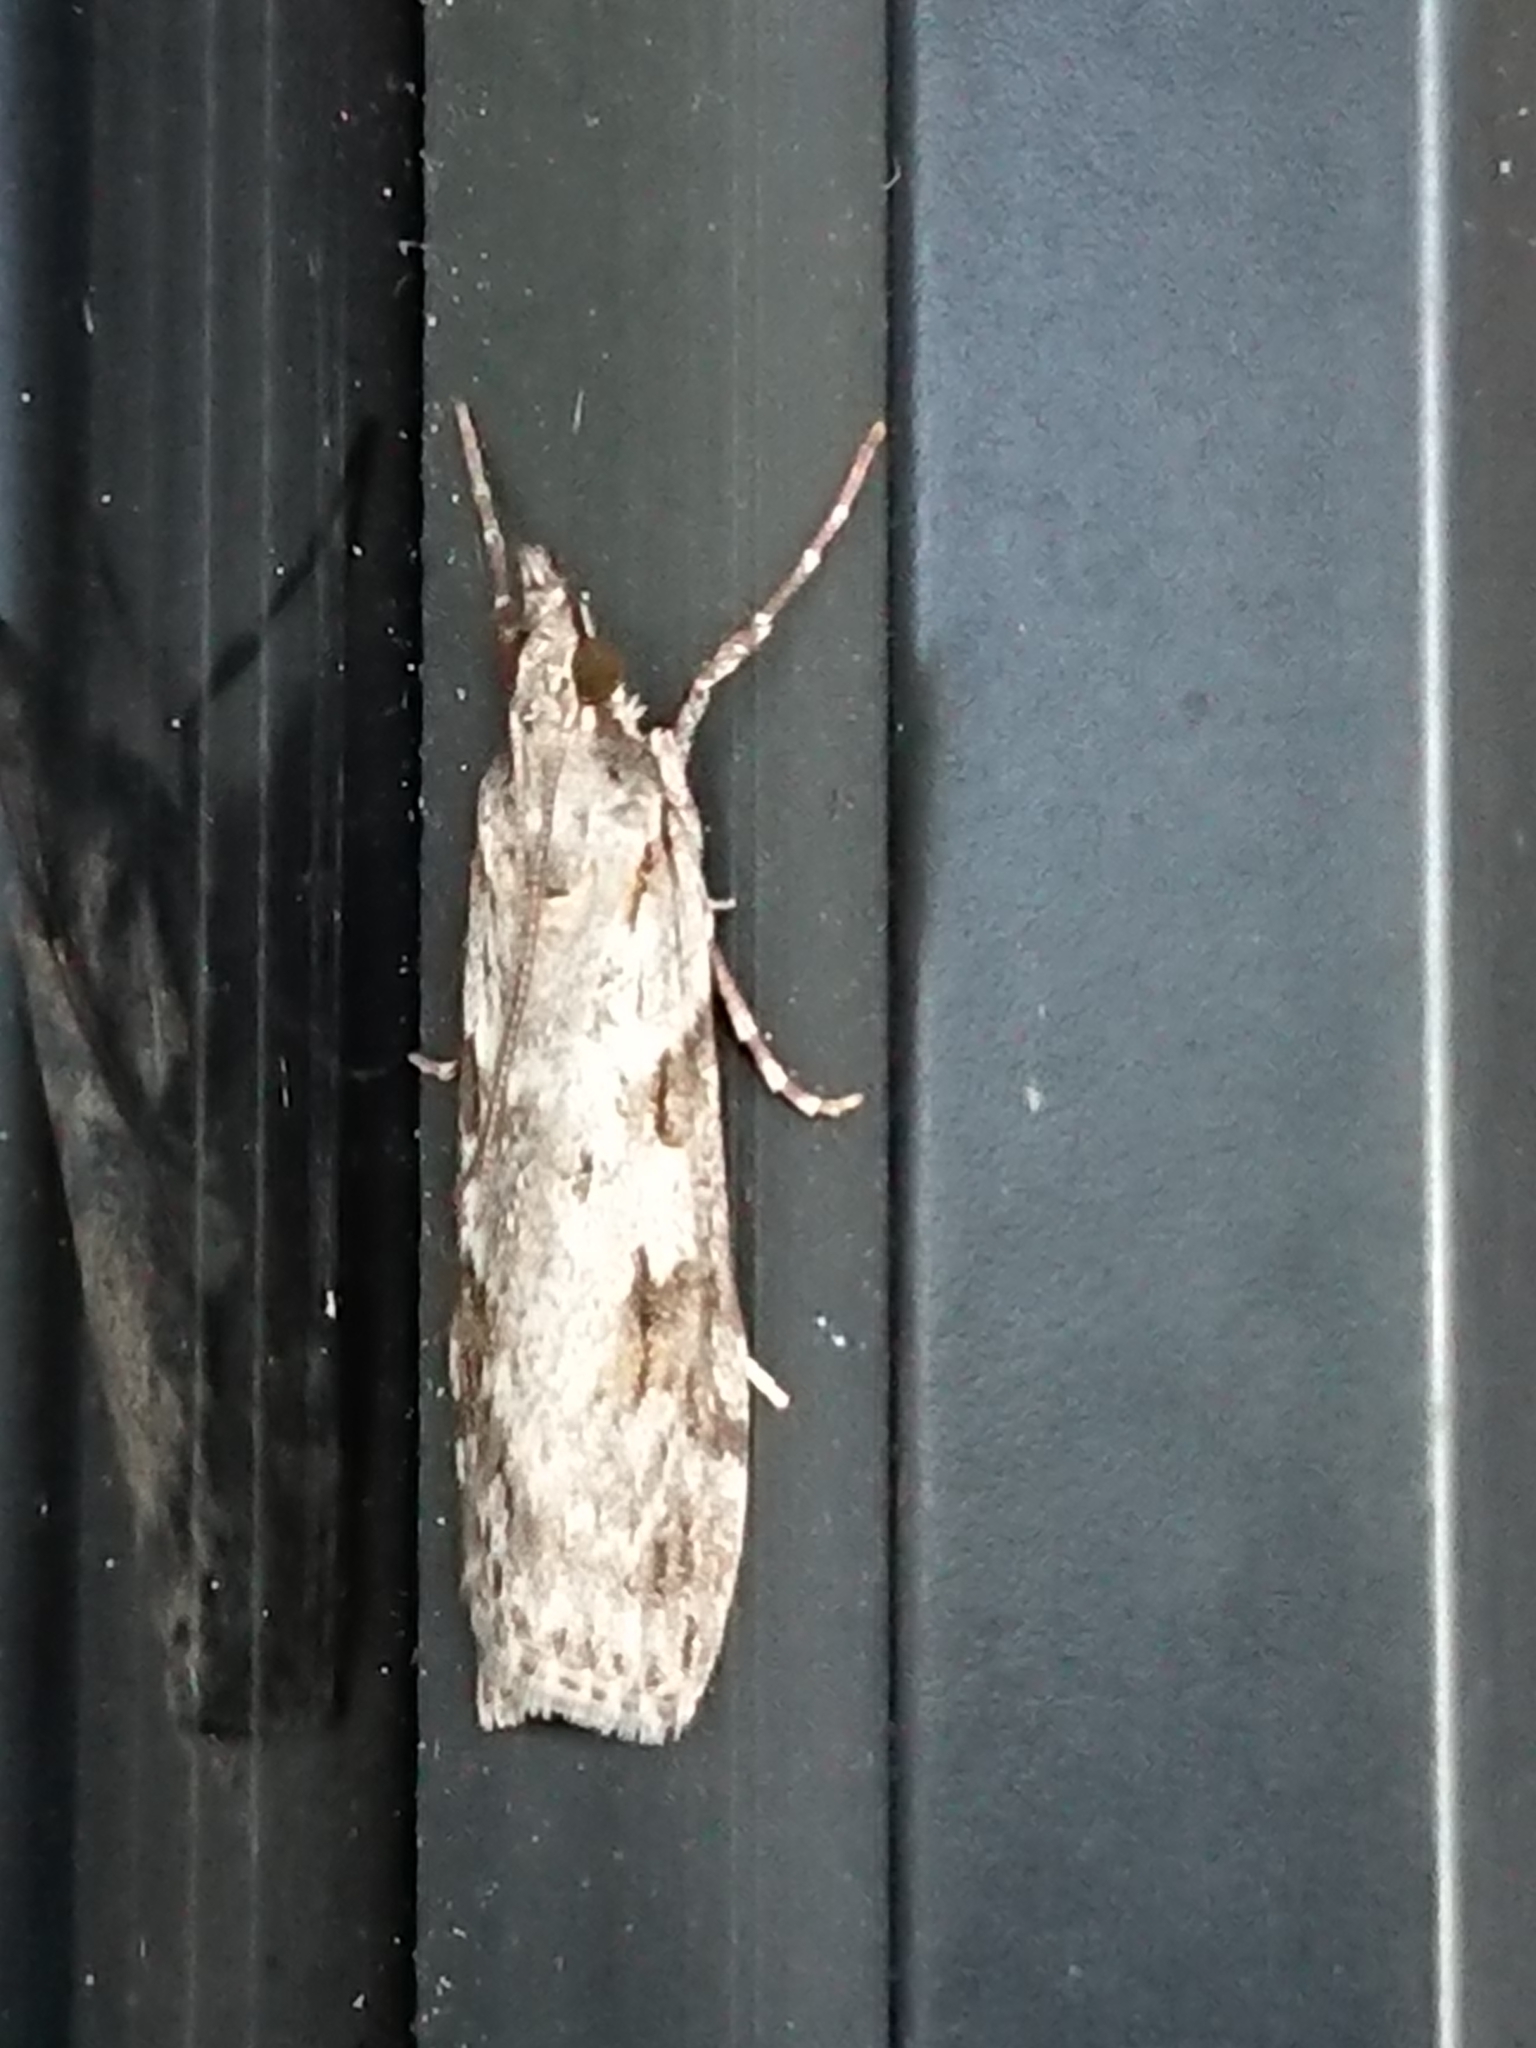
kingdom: Animalia
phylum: Arthropoda
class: Insecta
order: Lepidoptera
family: Crambidae
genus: Scoparia
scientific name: Scoparia halopis
